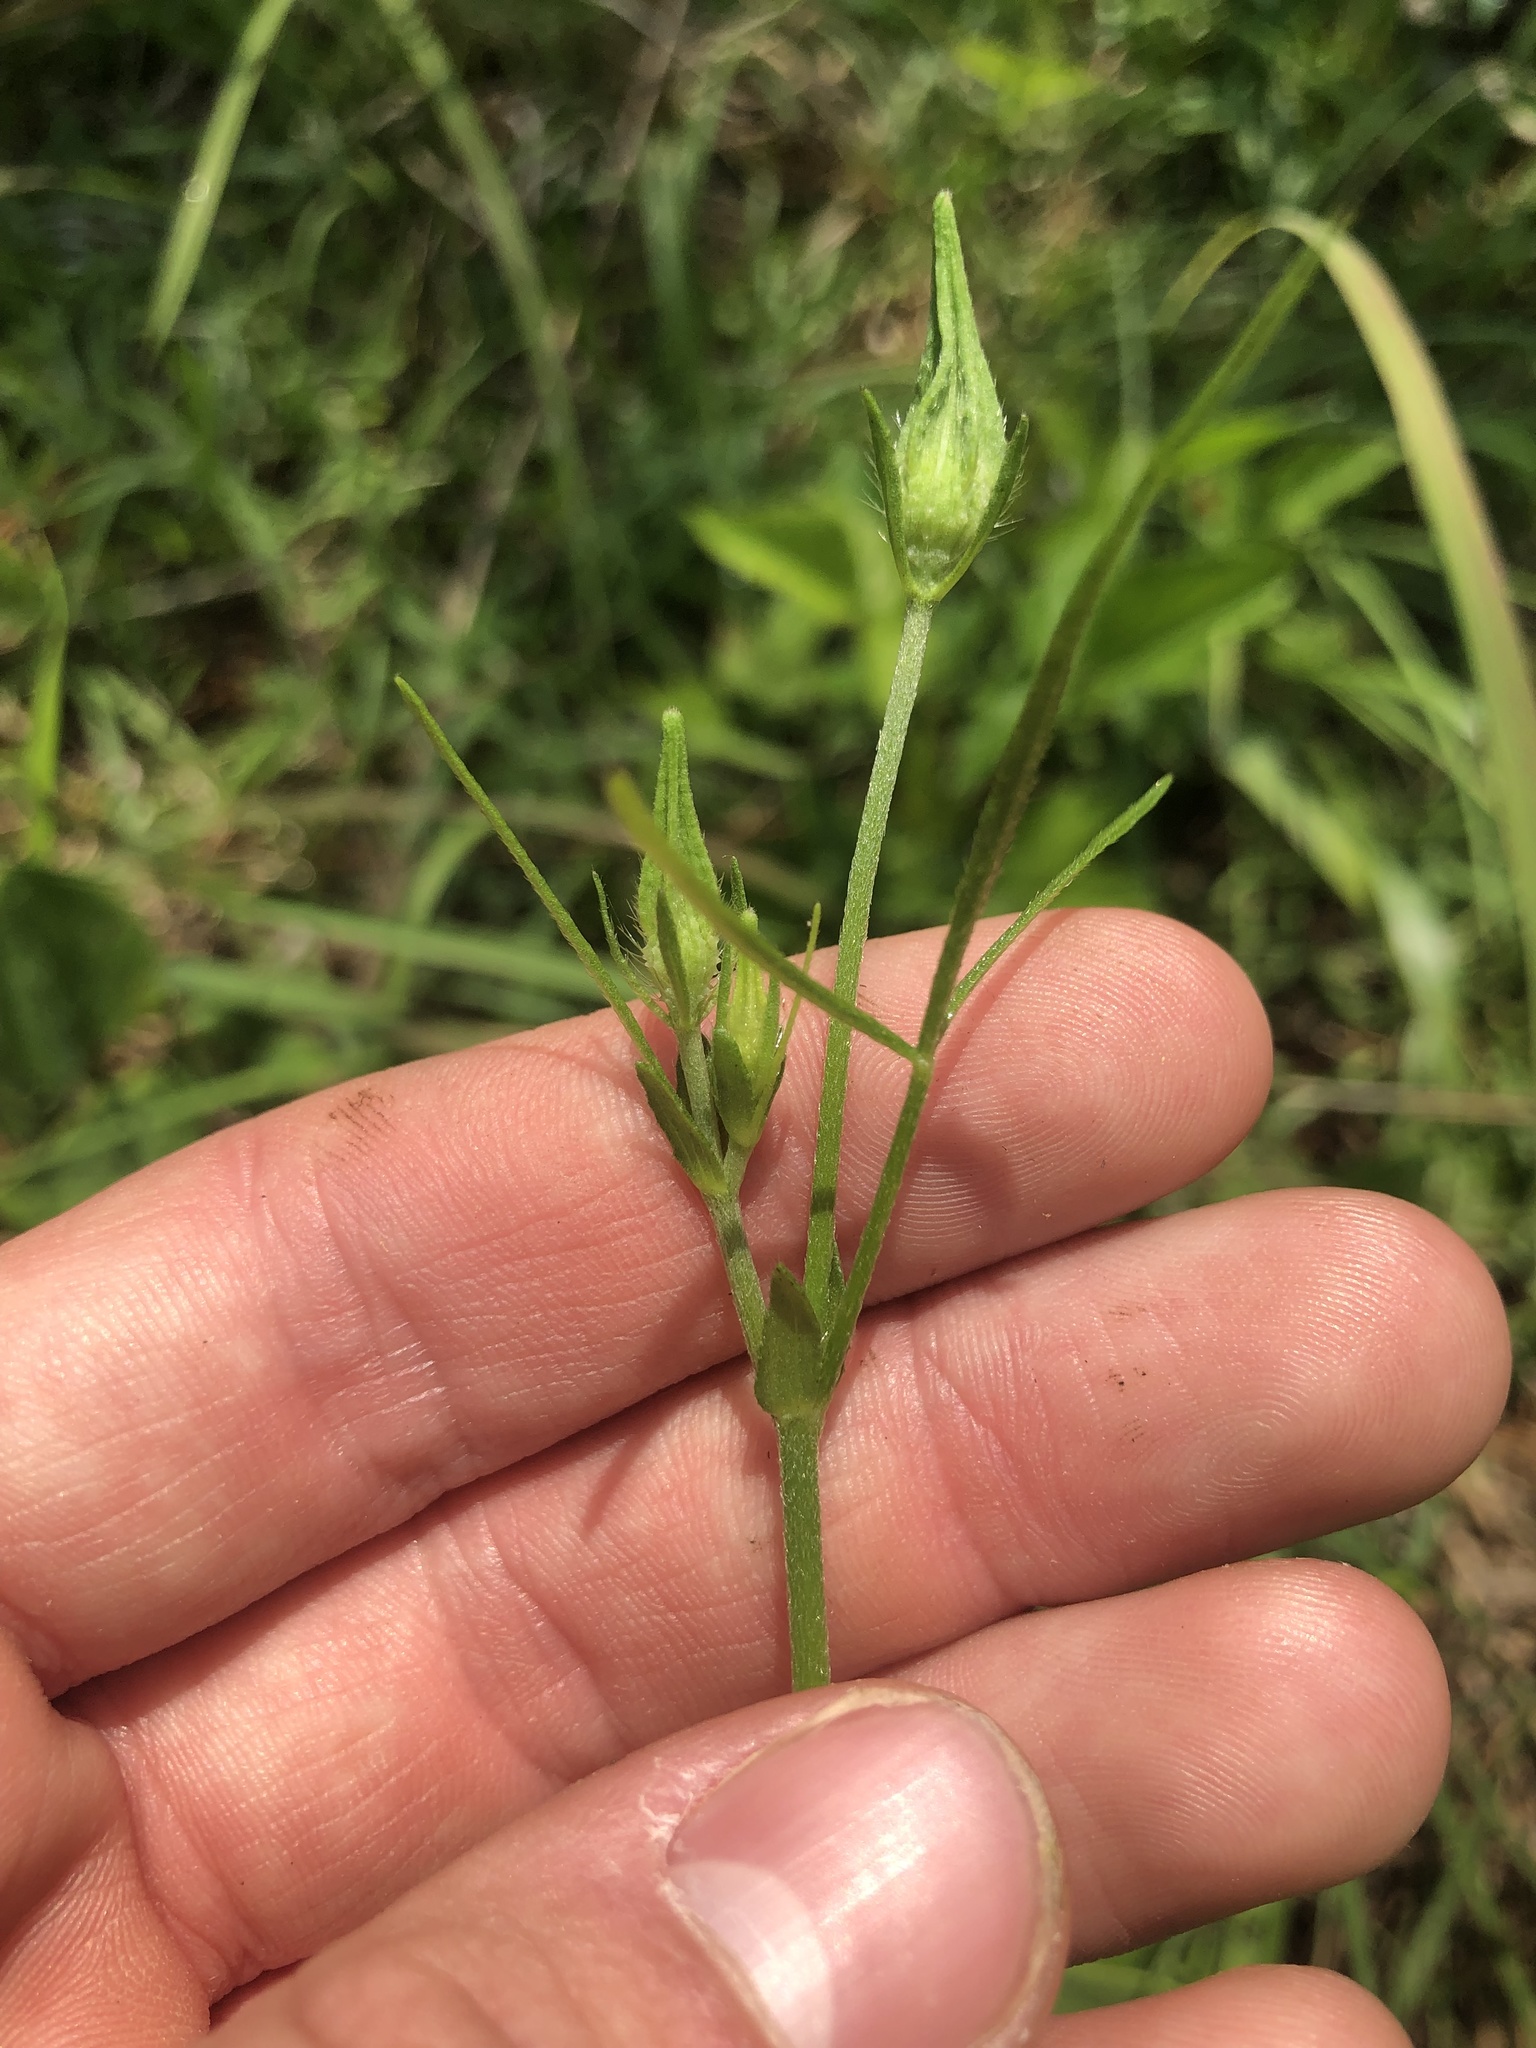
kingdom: Plantae
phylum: Tracheophyta
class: Magnoliopsida
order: Malvales
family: Malvaceae
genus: Callirhoe
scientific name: Callirhoe papaver
